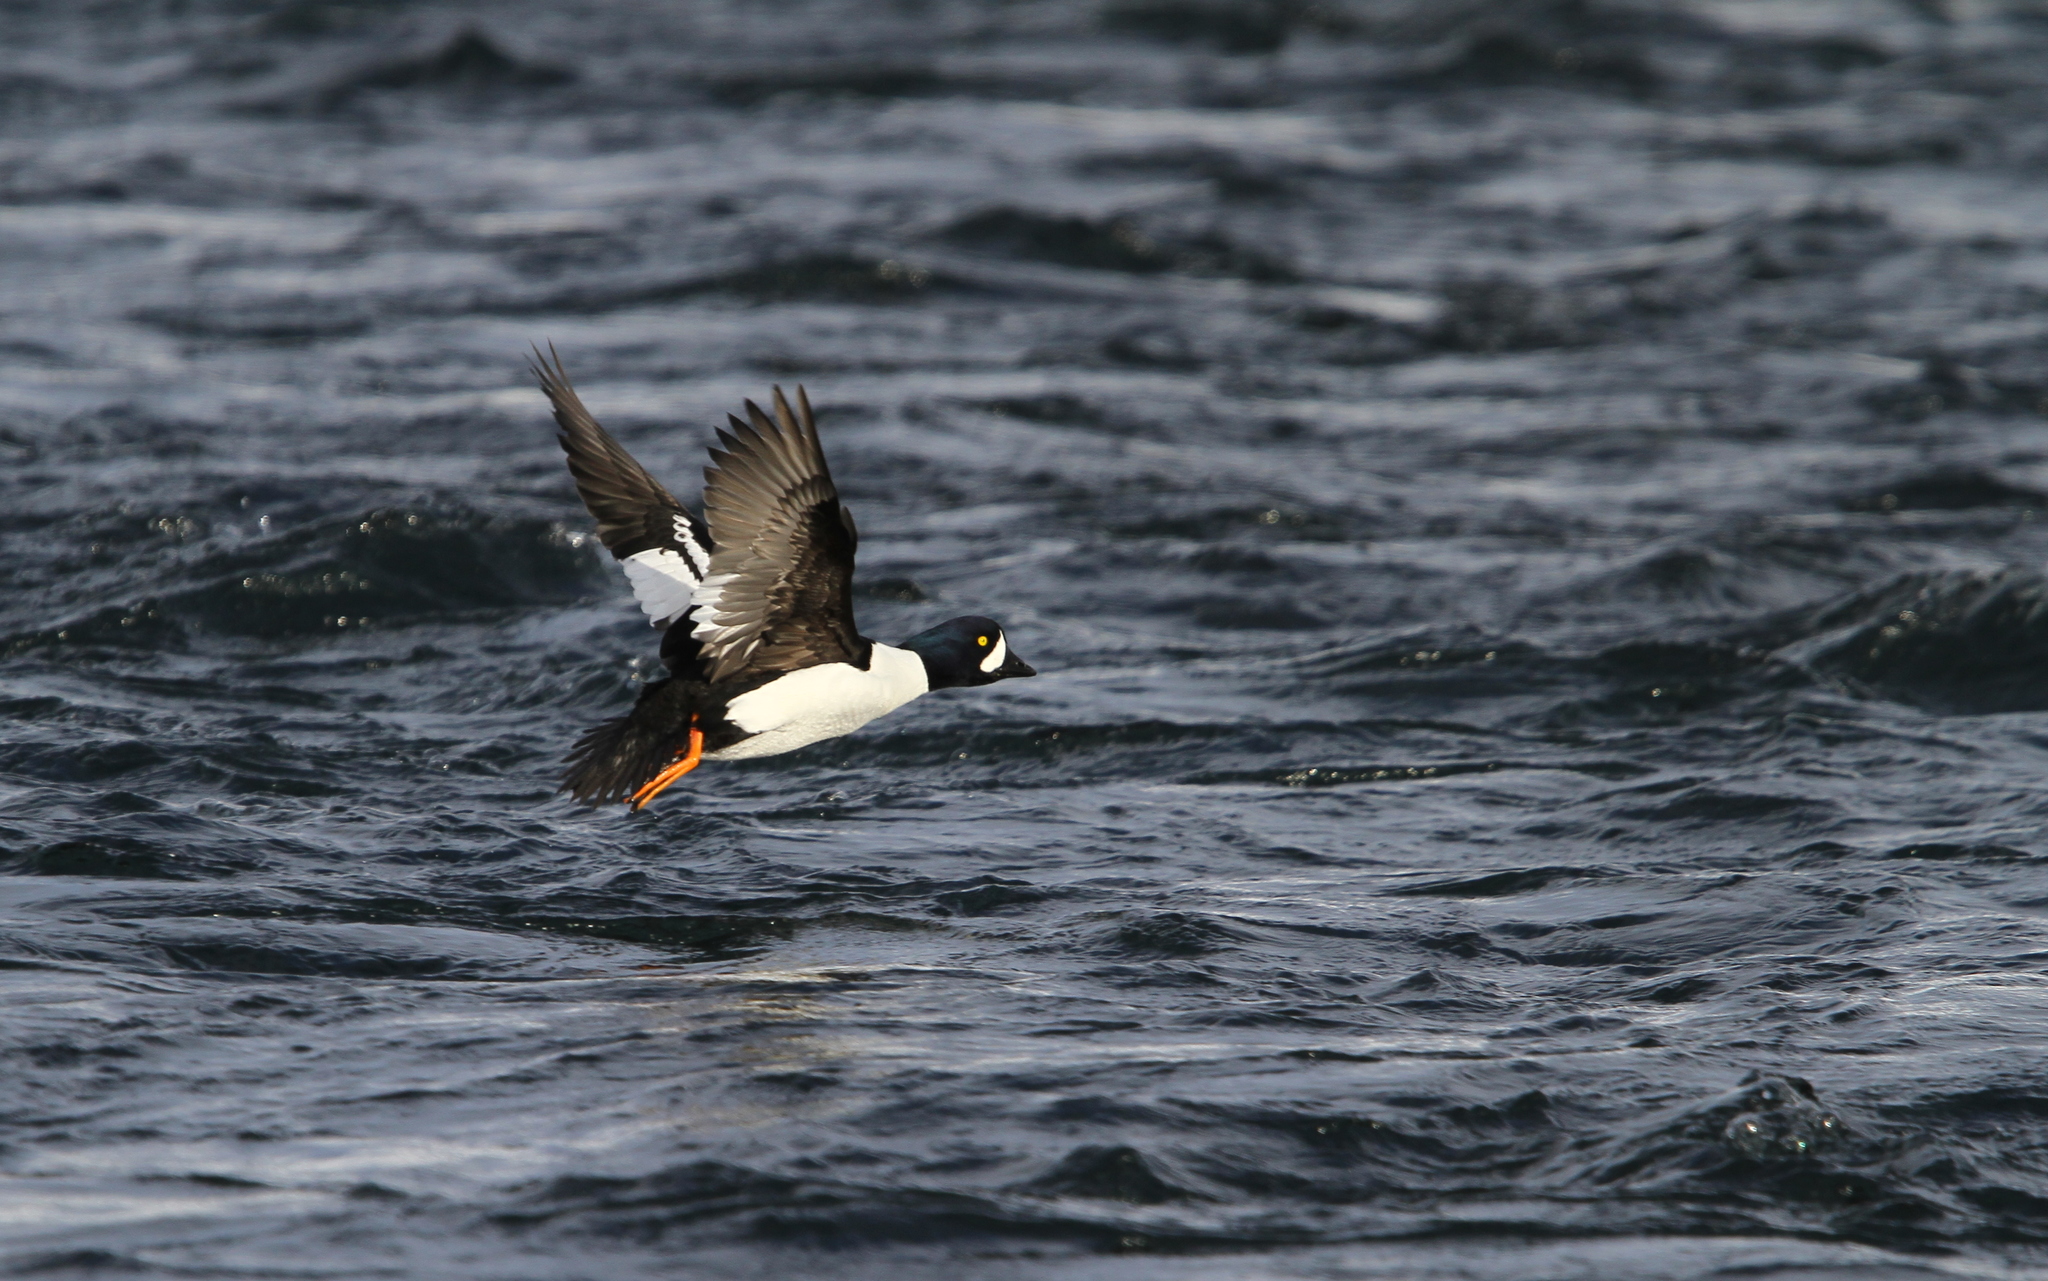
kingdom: Animalia
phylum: Chordata
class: Aves
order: Anseriformes
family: Anatidae
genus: Bucephala
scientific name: Bucephala islandica
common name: Barrow's goldeneye
